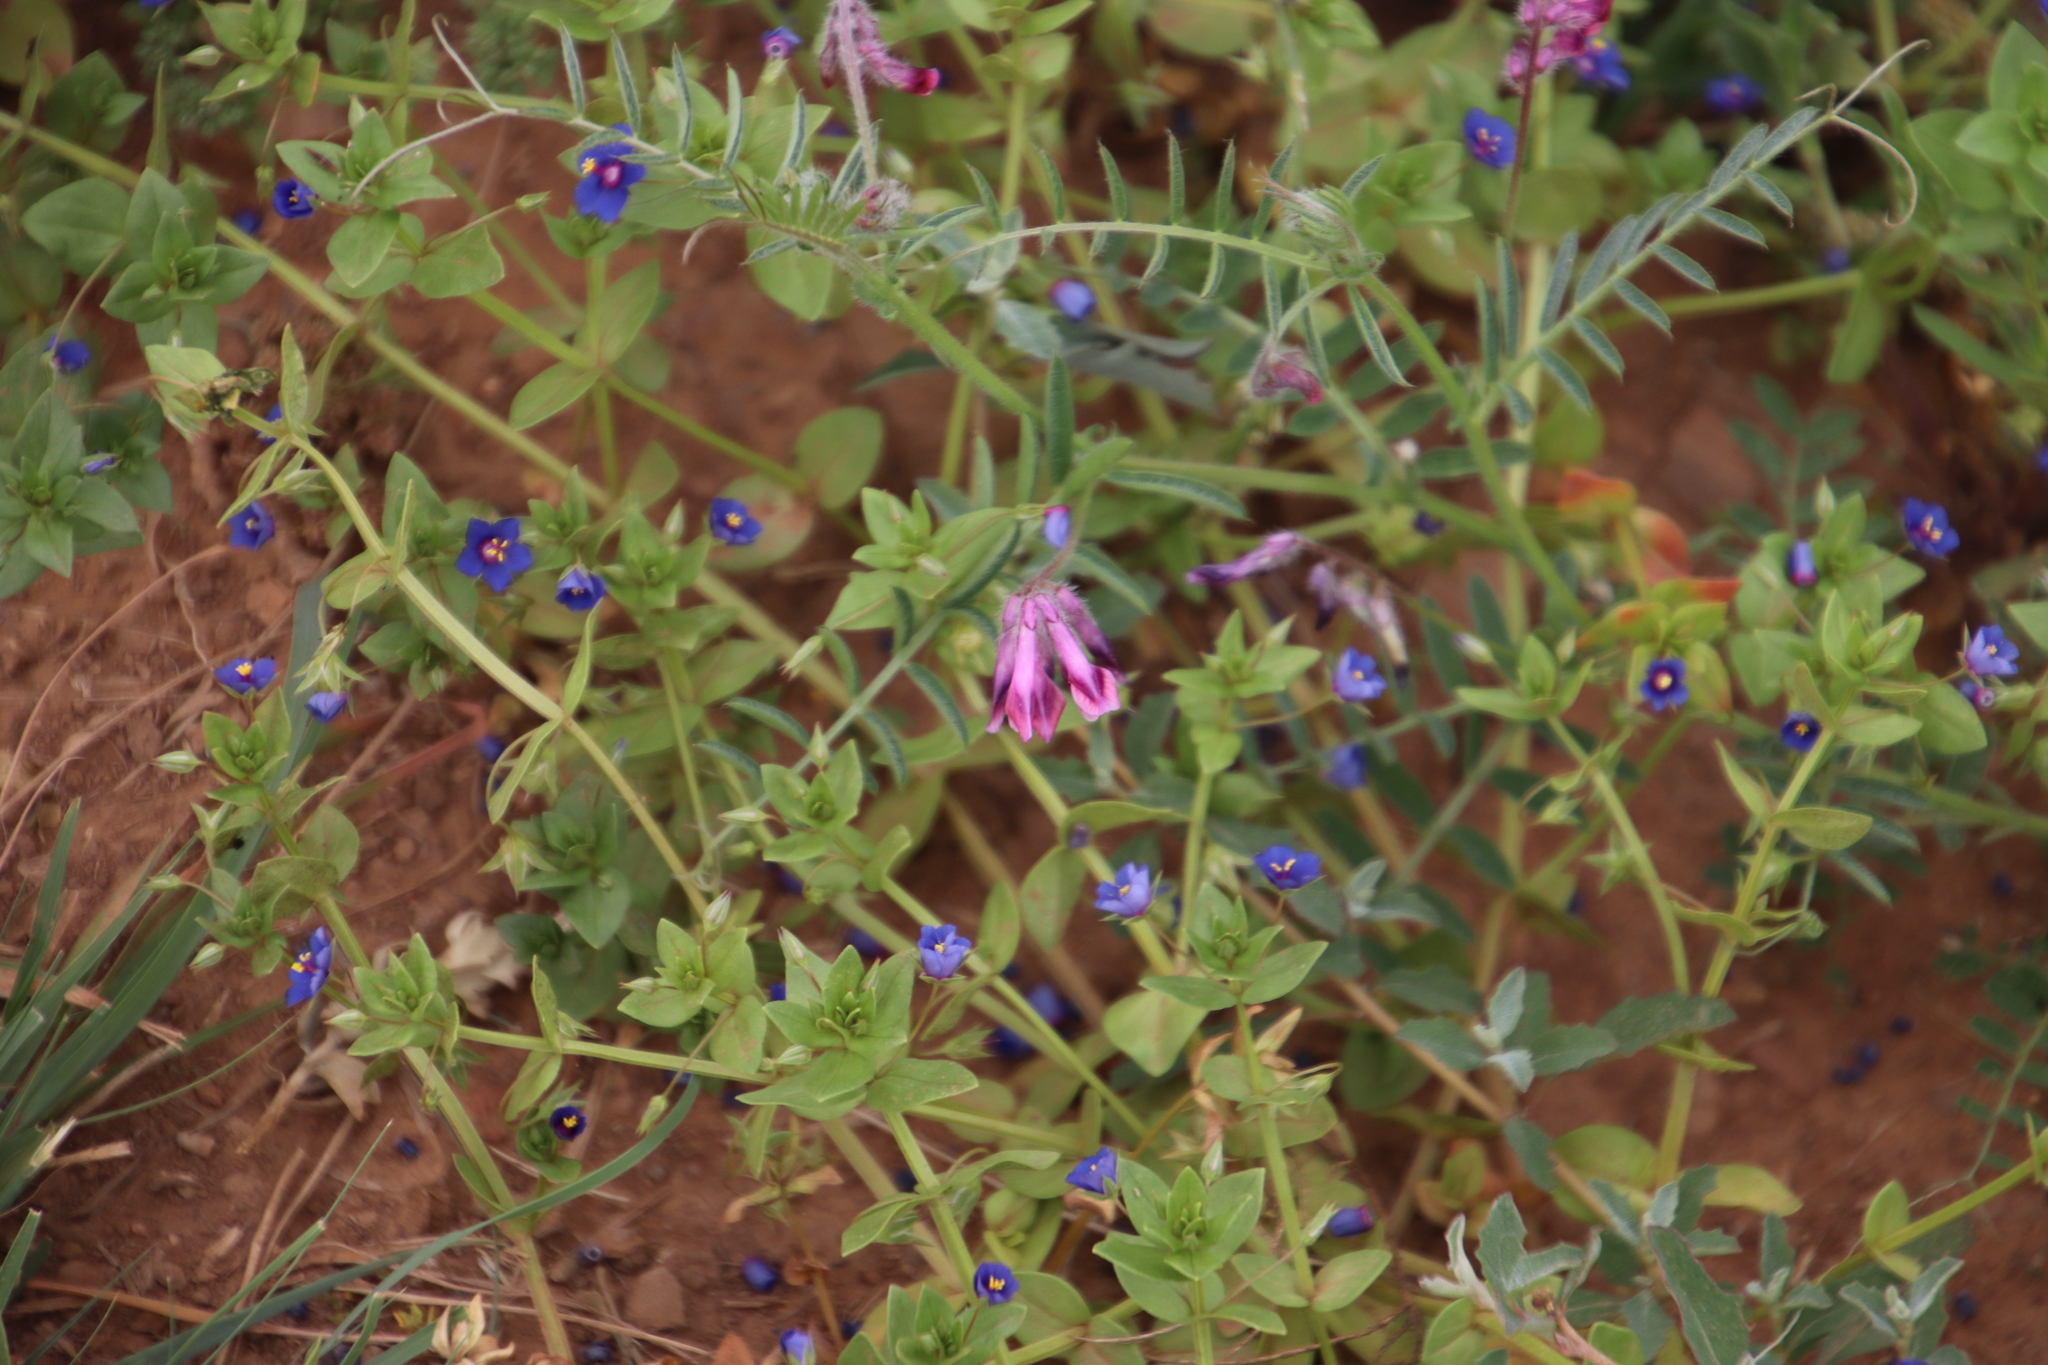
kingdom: Plantae
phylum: Tracheophyta
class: Magnoliopsida
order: Fabales
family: Fabaceae
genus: Vicia
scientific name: Vicia benghalensis
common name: Purple vetch
